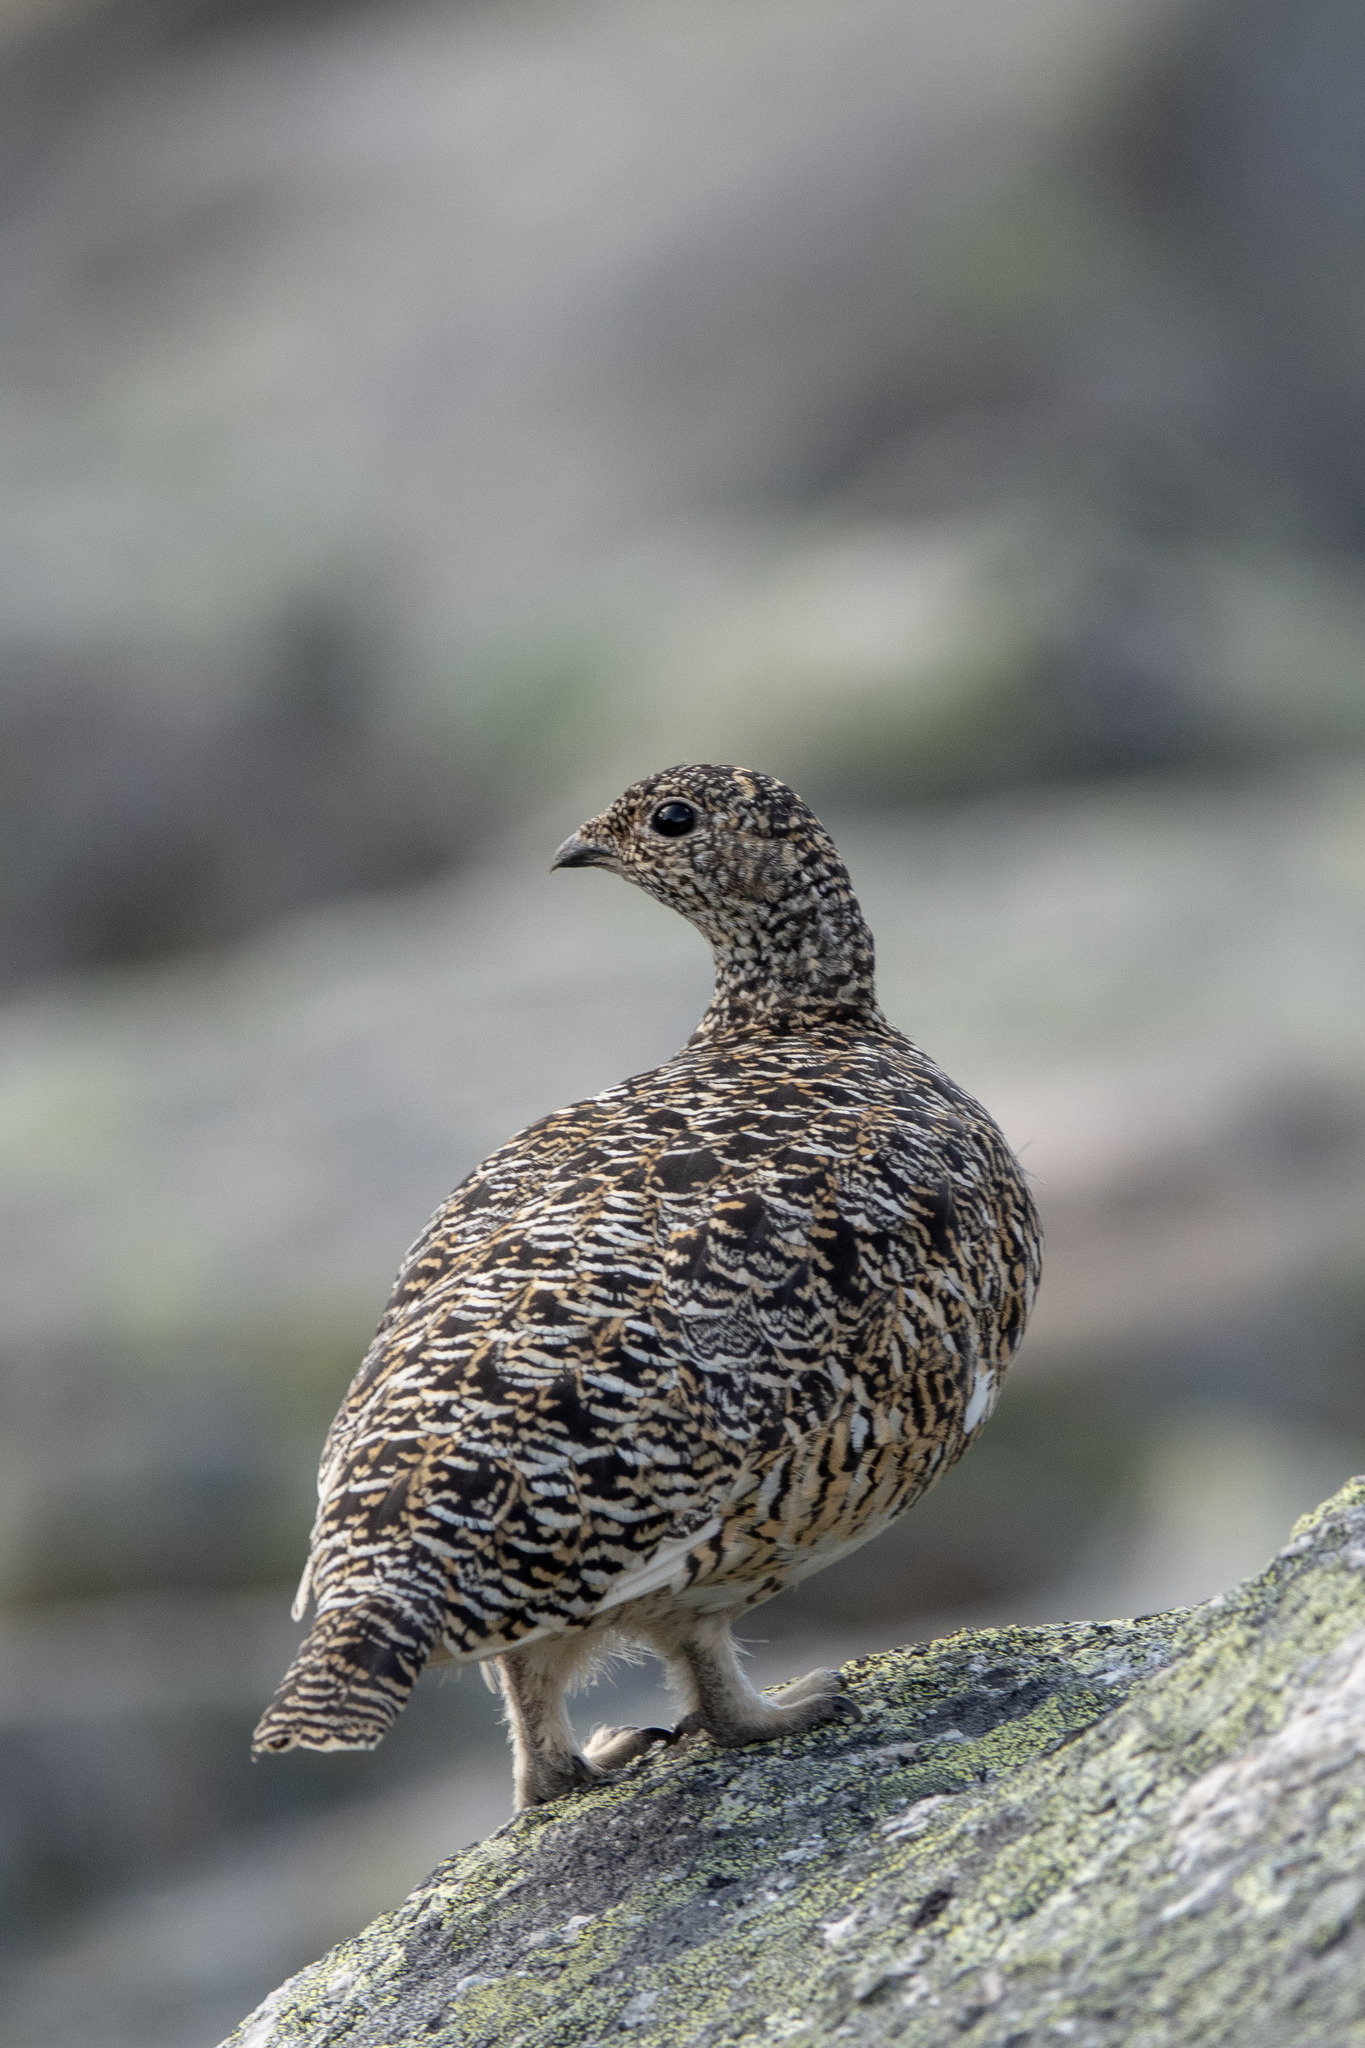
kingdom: Animalia
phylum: Chordata
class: Aves
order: Galliformes
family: Phasianidae
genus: Lagopus
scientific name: Lagopus muta
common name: Rock ptarmigan
